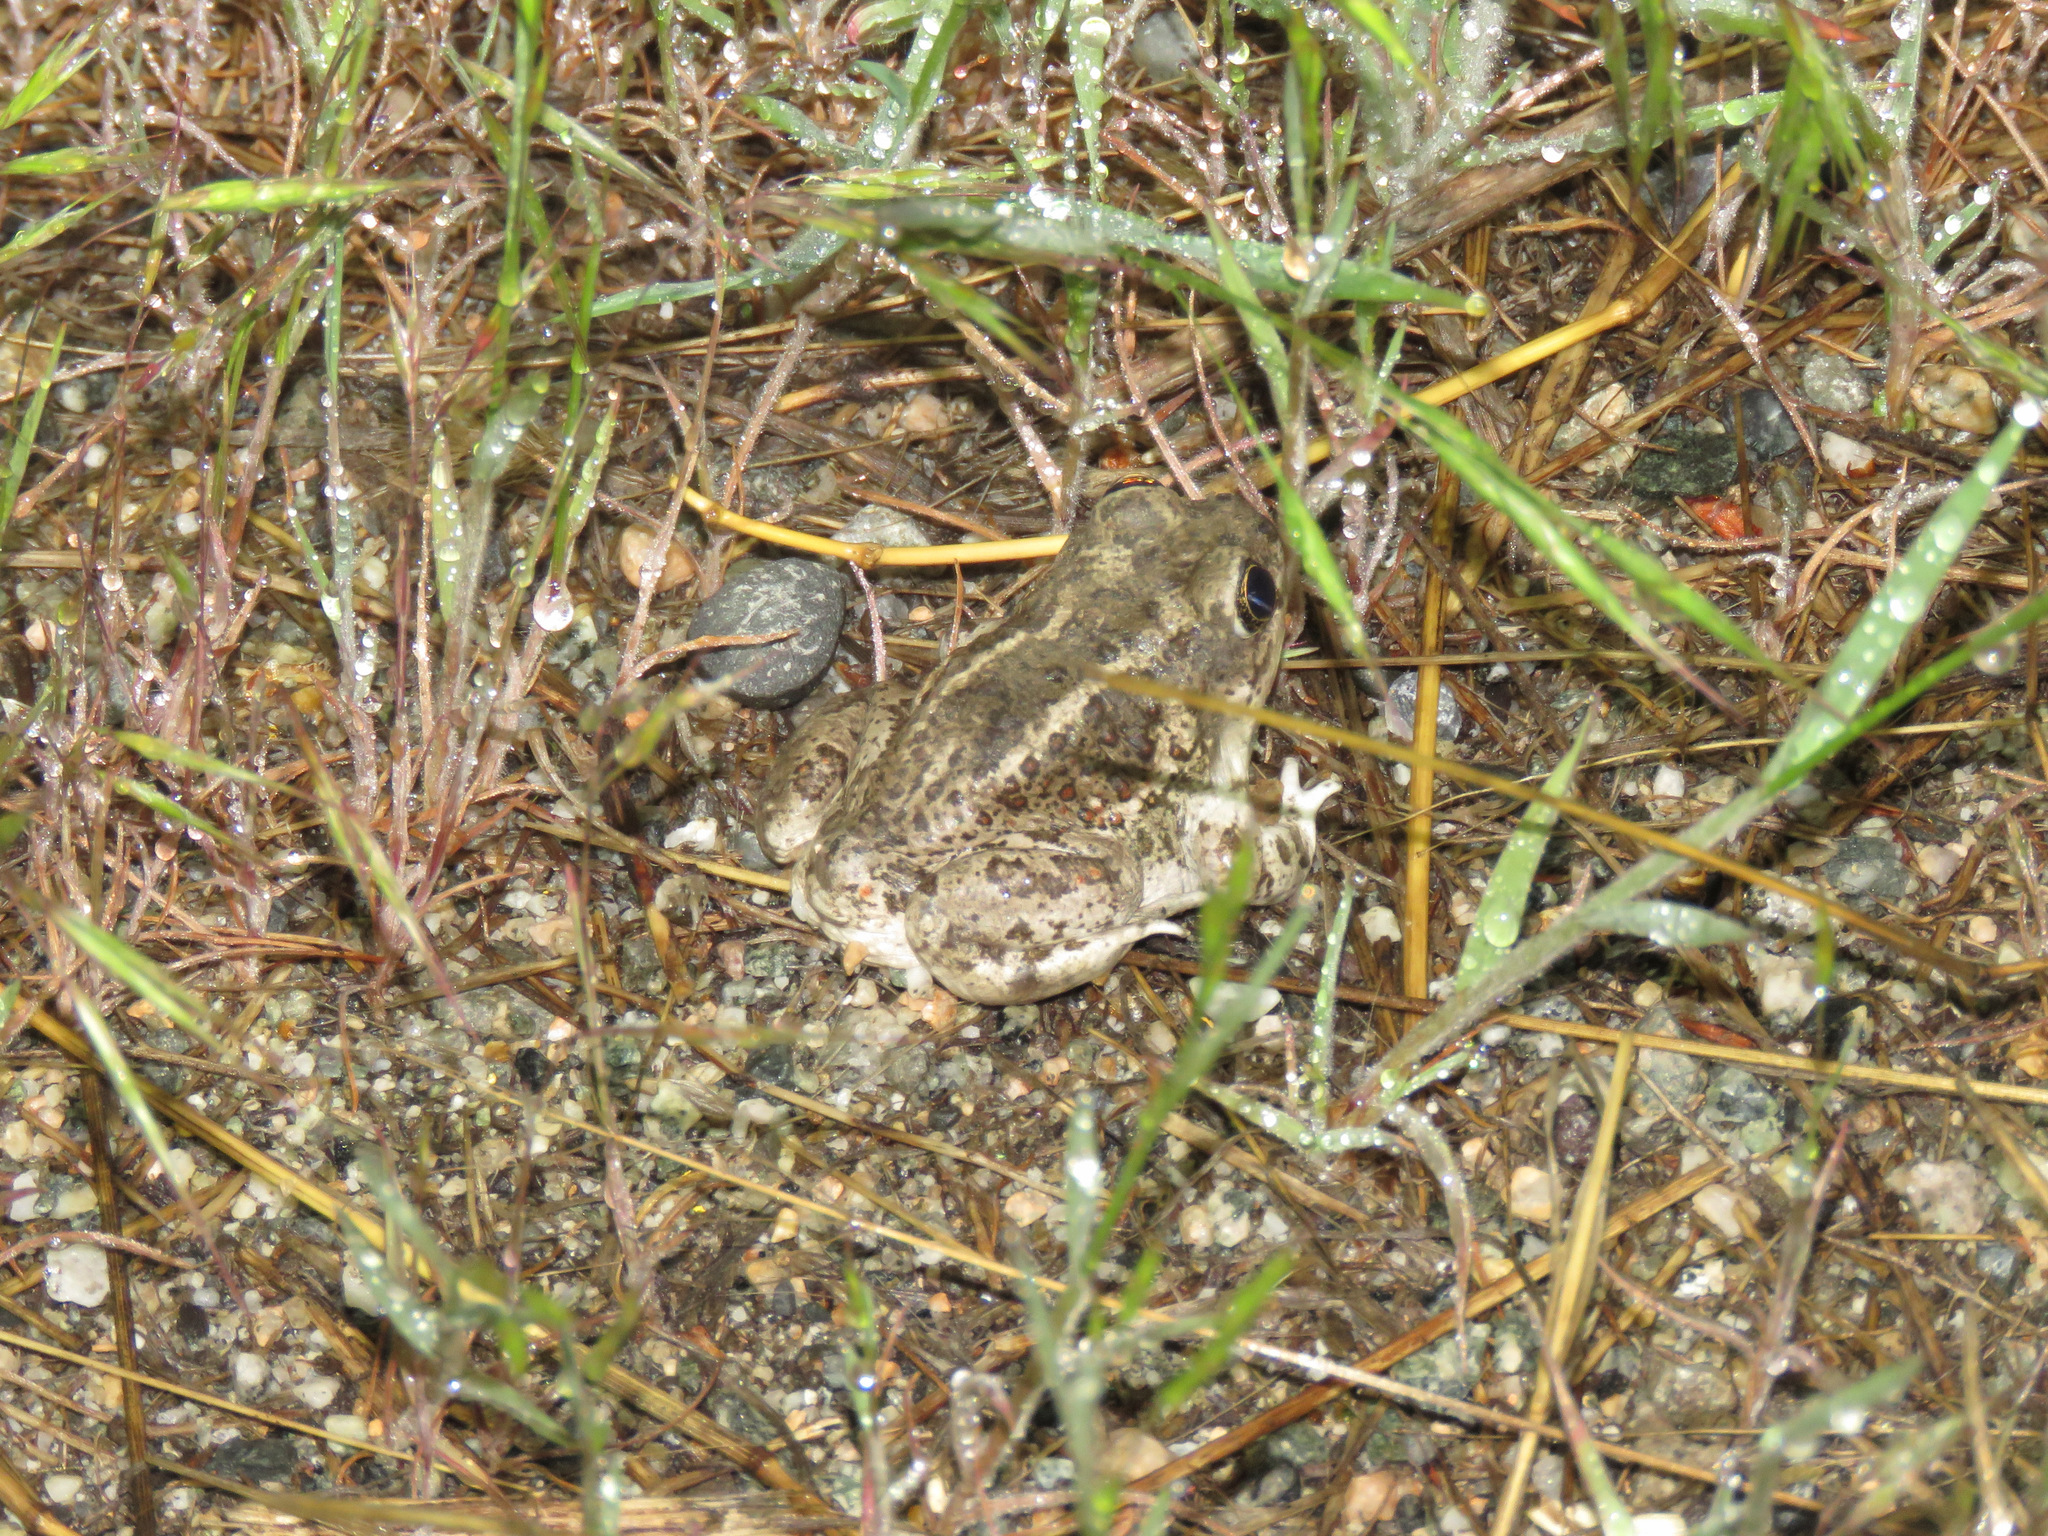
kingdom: Animalia
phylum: Chordata
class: Amphibia
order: Anura
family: Scaphiopodidae
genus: Spea
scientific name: Spea intermontana
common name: Great basin spadefoot
